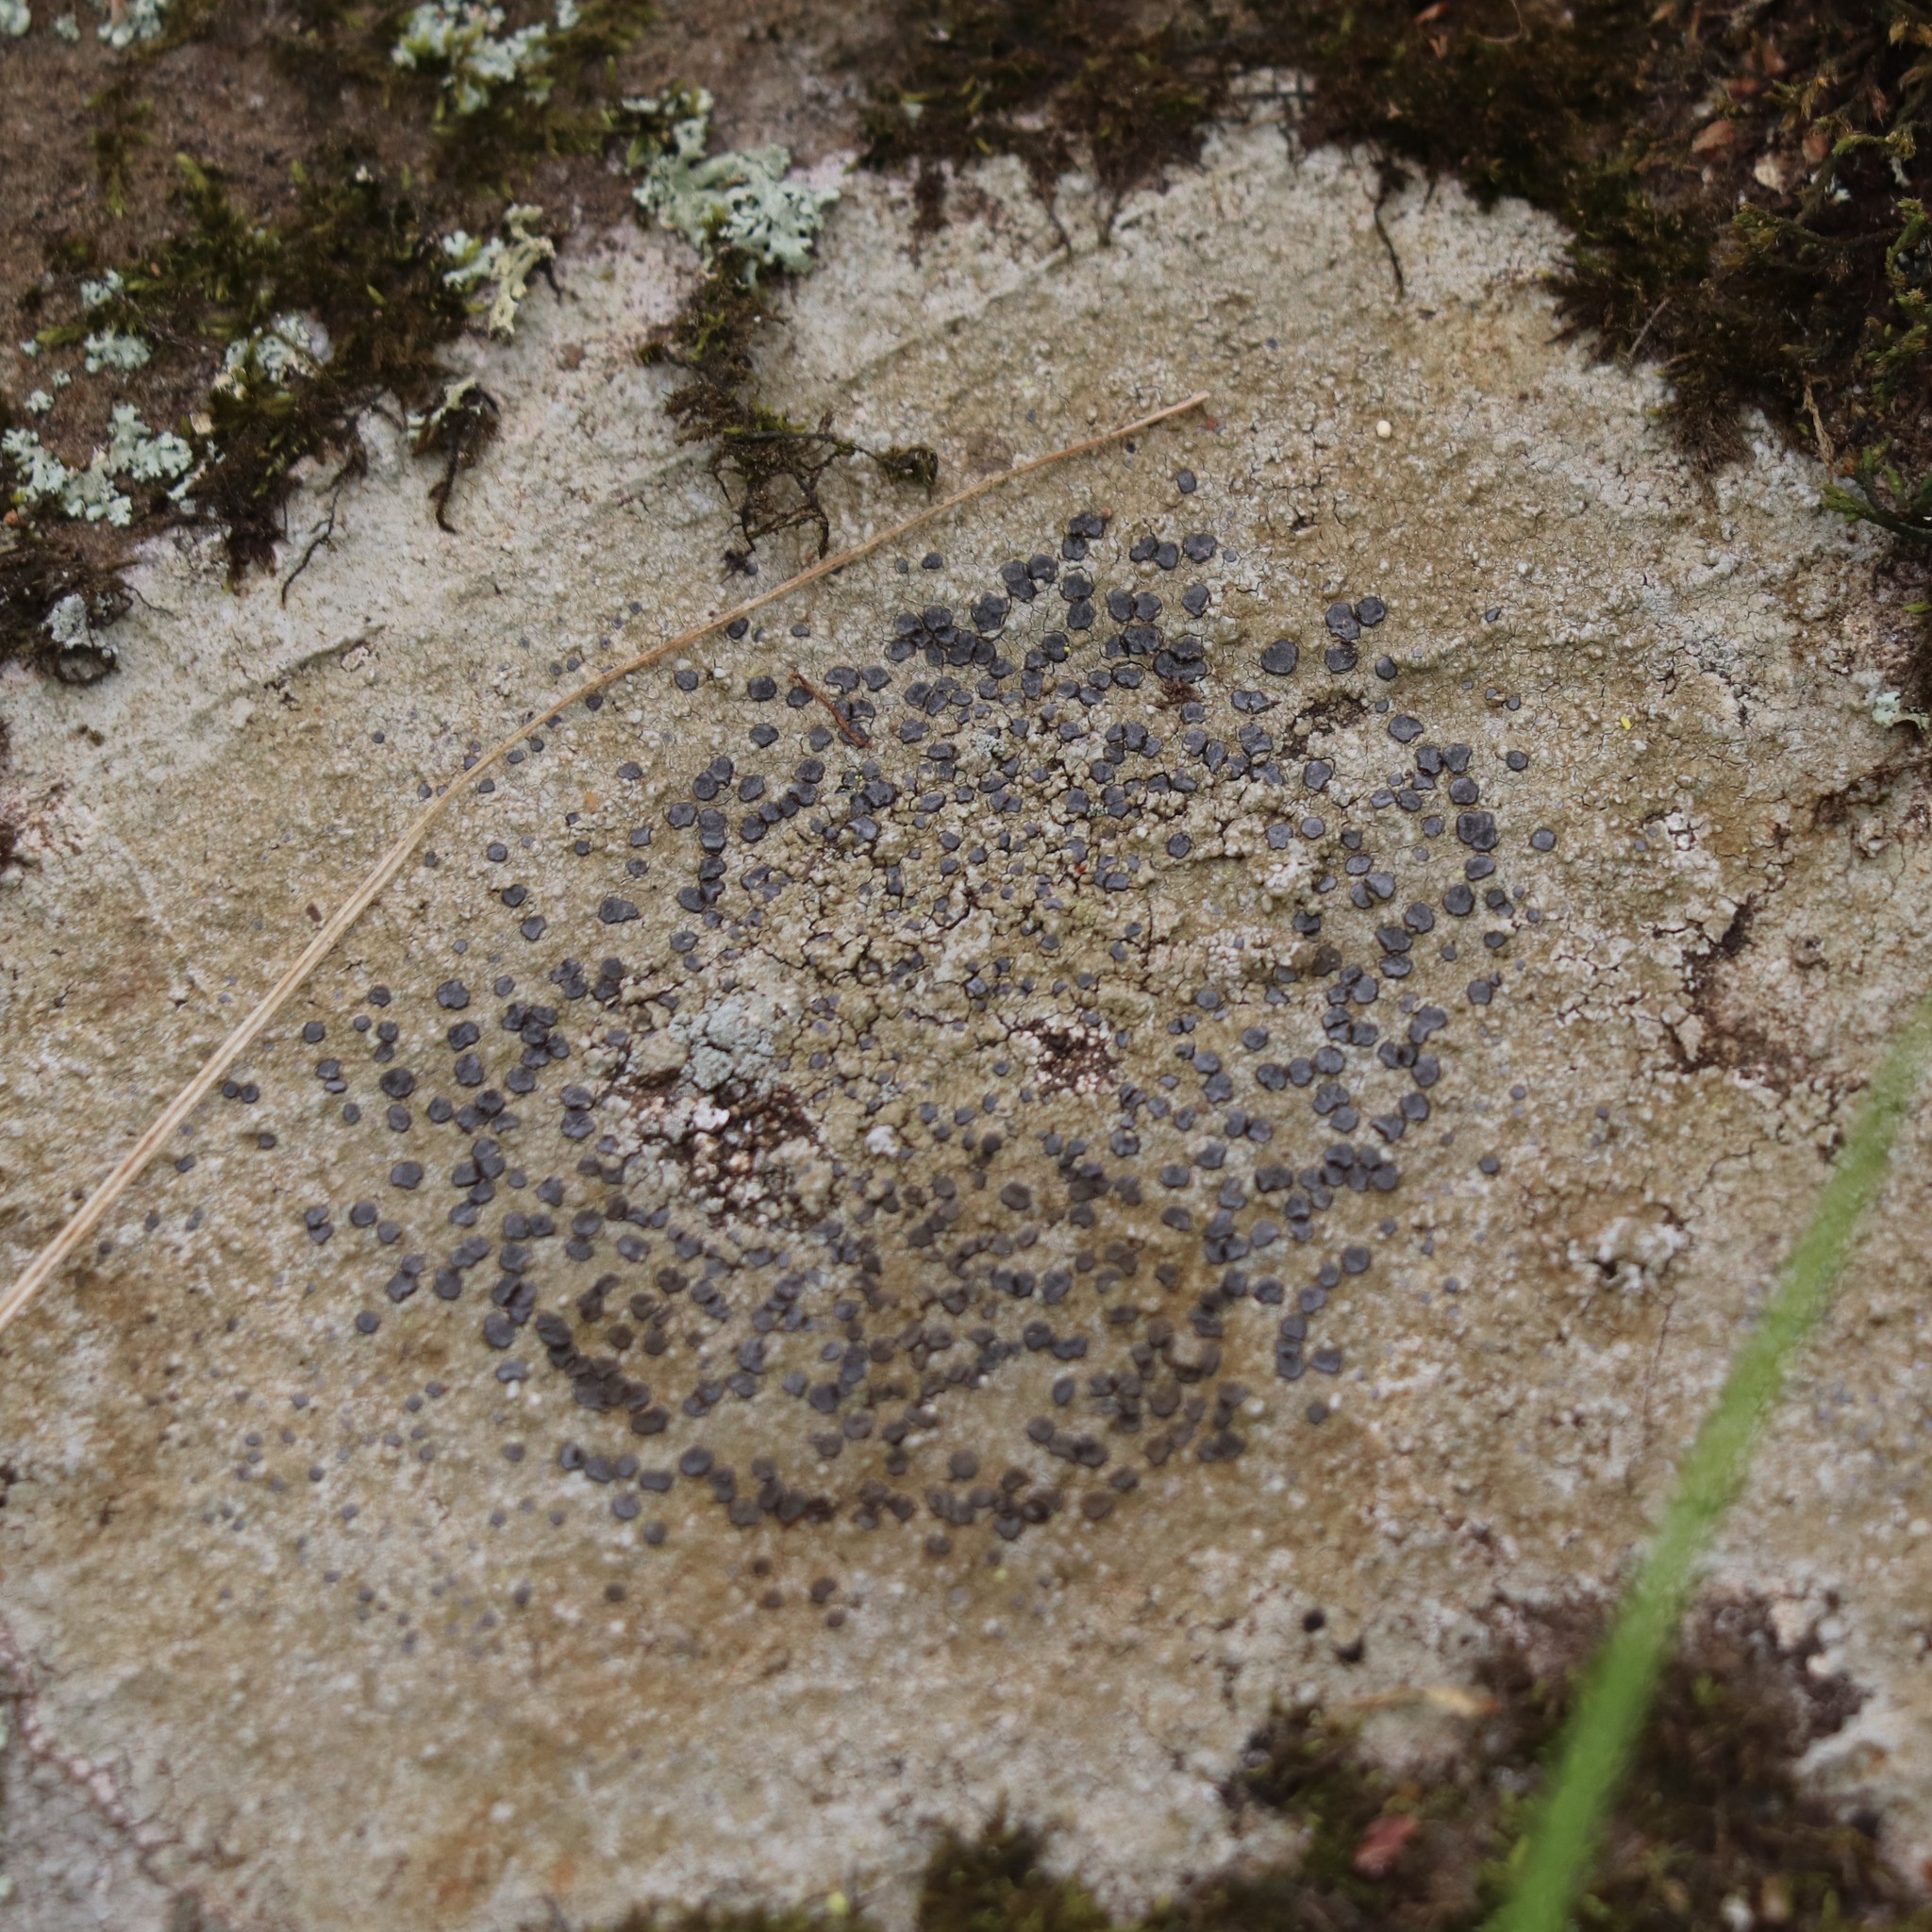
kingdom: Fungi
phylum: Ascomycota
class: Lecanoromycetes
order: Lecideales
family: Lecideaceae
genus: Porpidia
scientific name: Porpidia albocaerulescens
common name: Smokey-eyed boulder lichen
